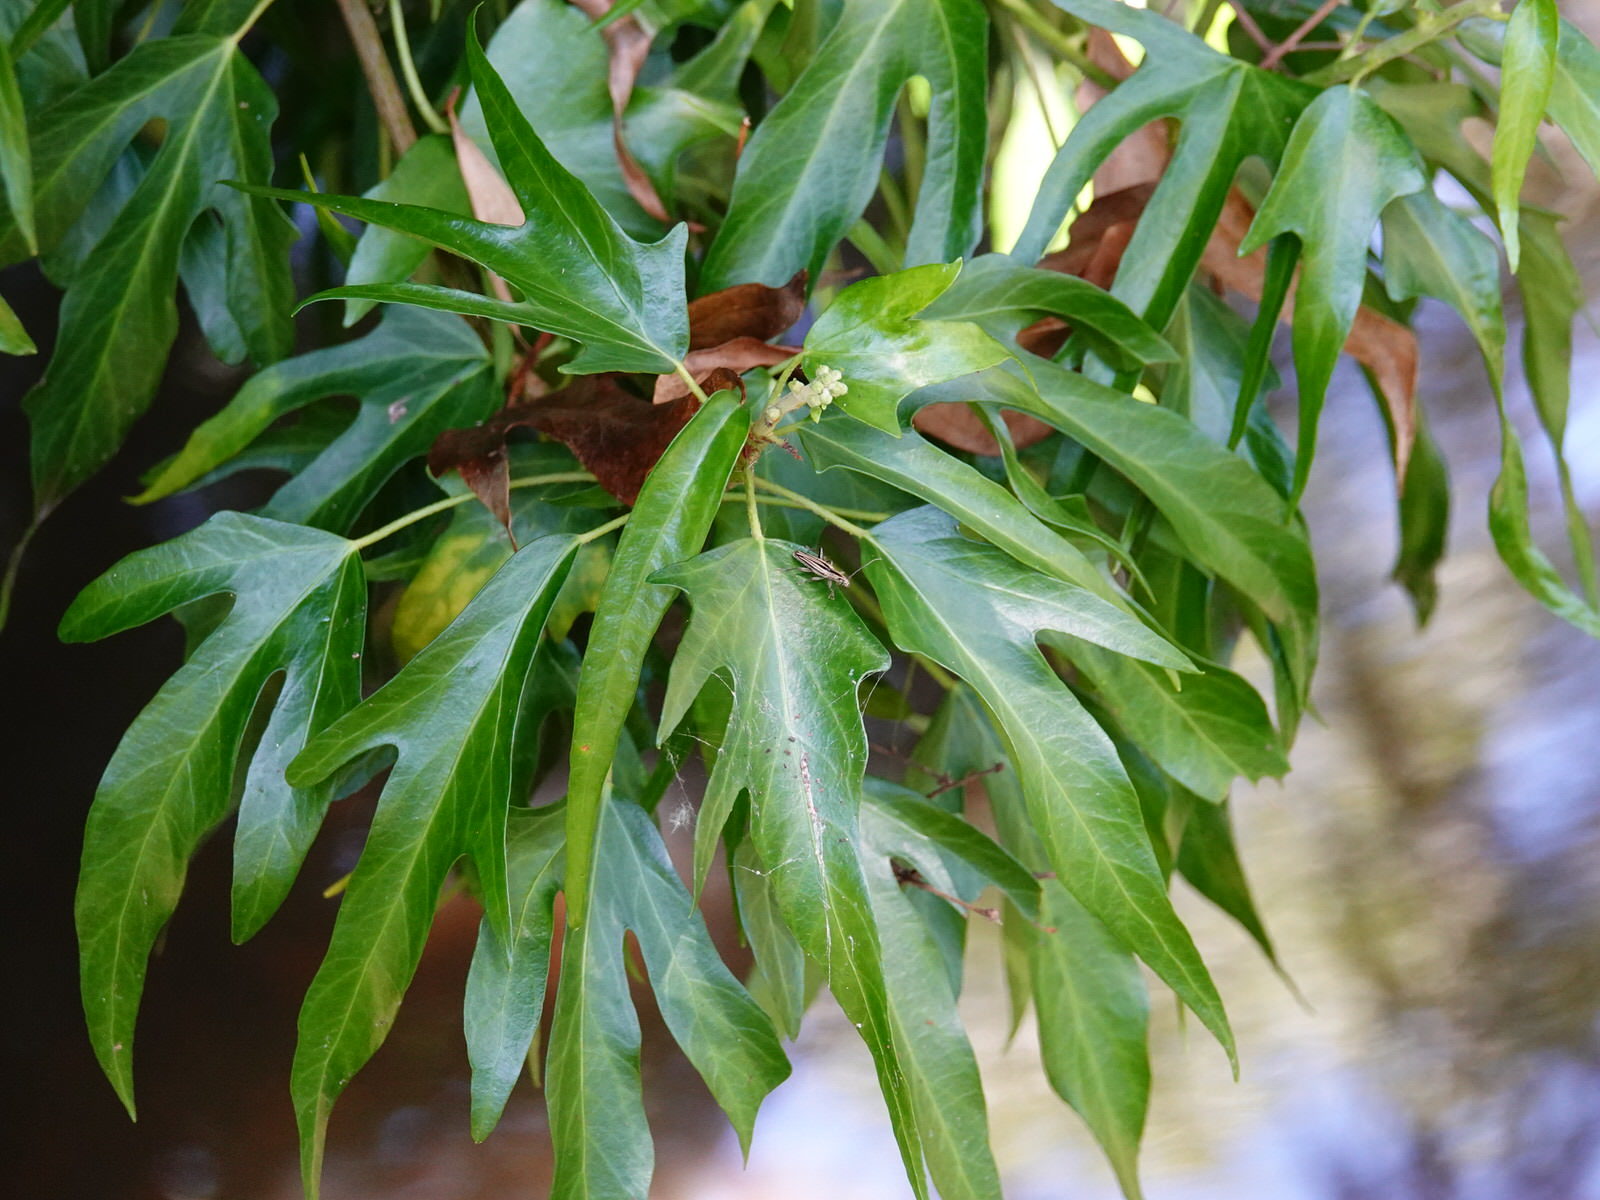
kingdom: Animalia
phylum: Arthropoda
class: Insecta
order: Coleoptera
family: Cerambycidae
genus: Coptomma
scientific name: Coptomma sulcatum
